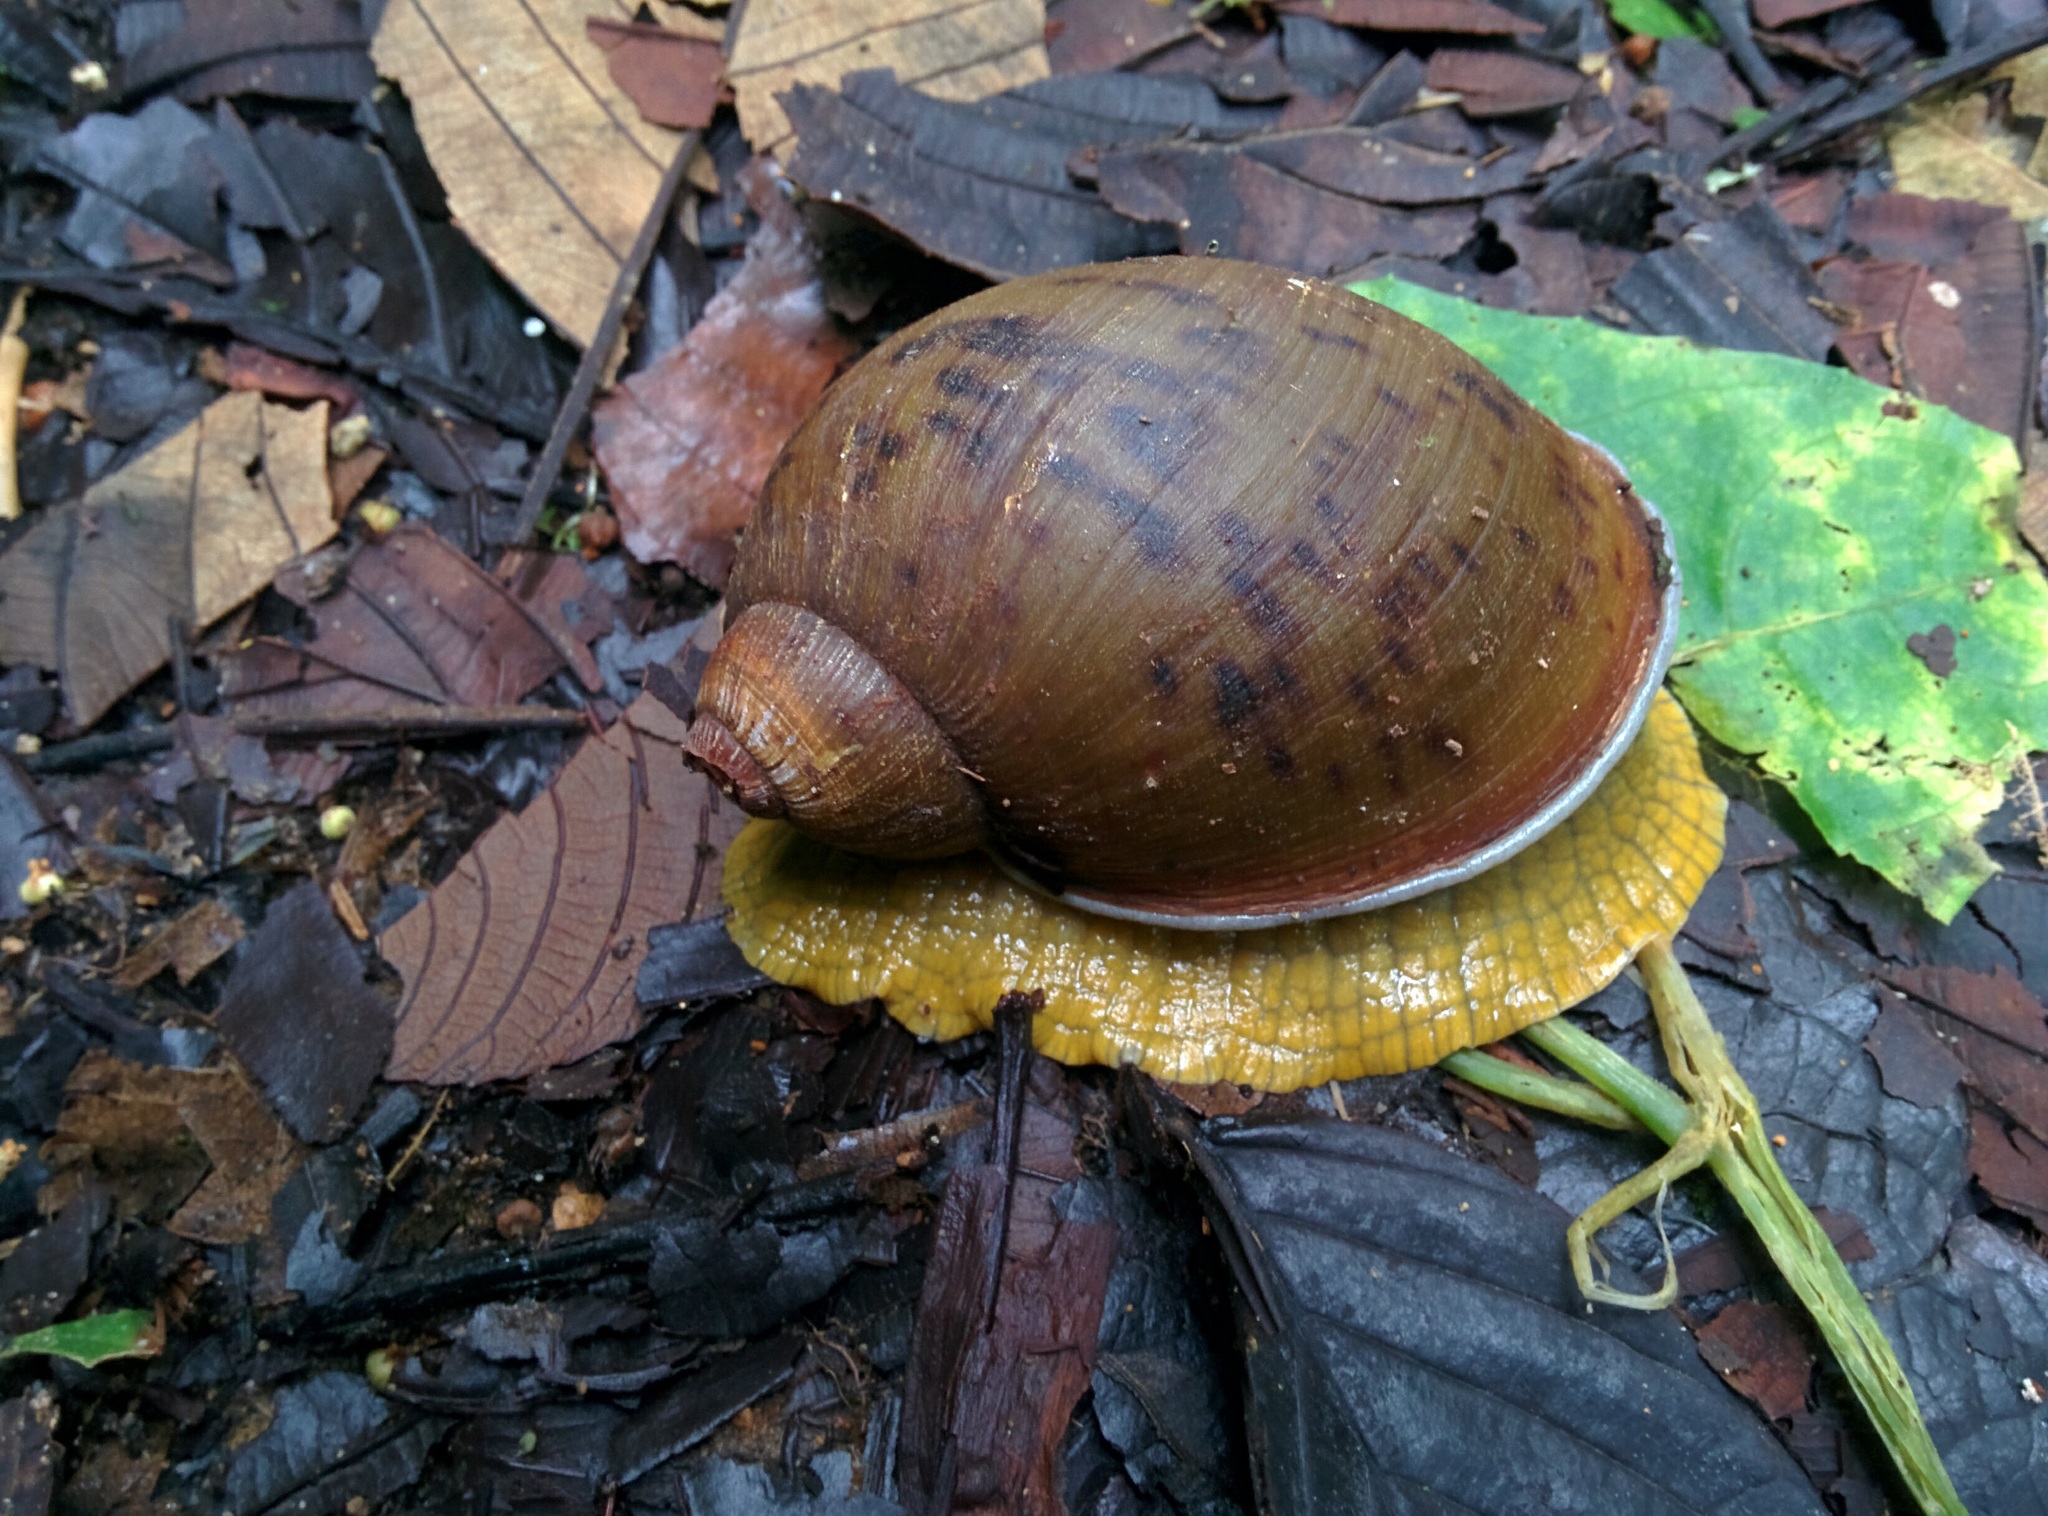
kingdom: Animalia
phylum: Mollusca
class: Gastropoda
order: Stylommatophora
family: Amphibulimidae
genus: Plekocheilus
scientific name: Plekocheilus jimenezi
